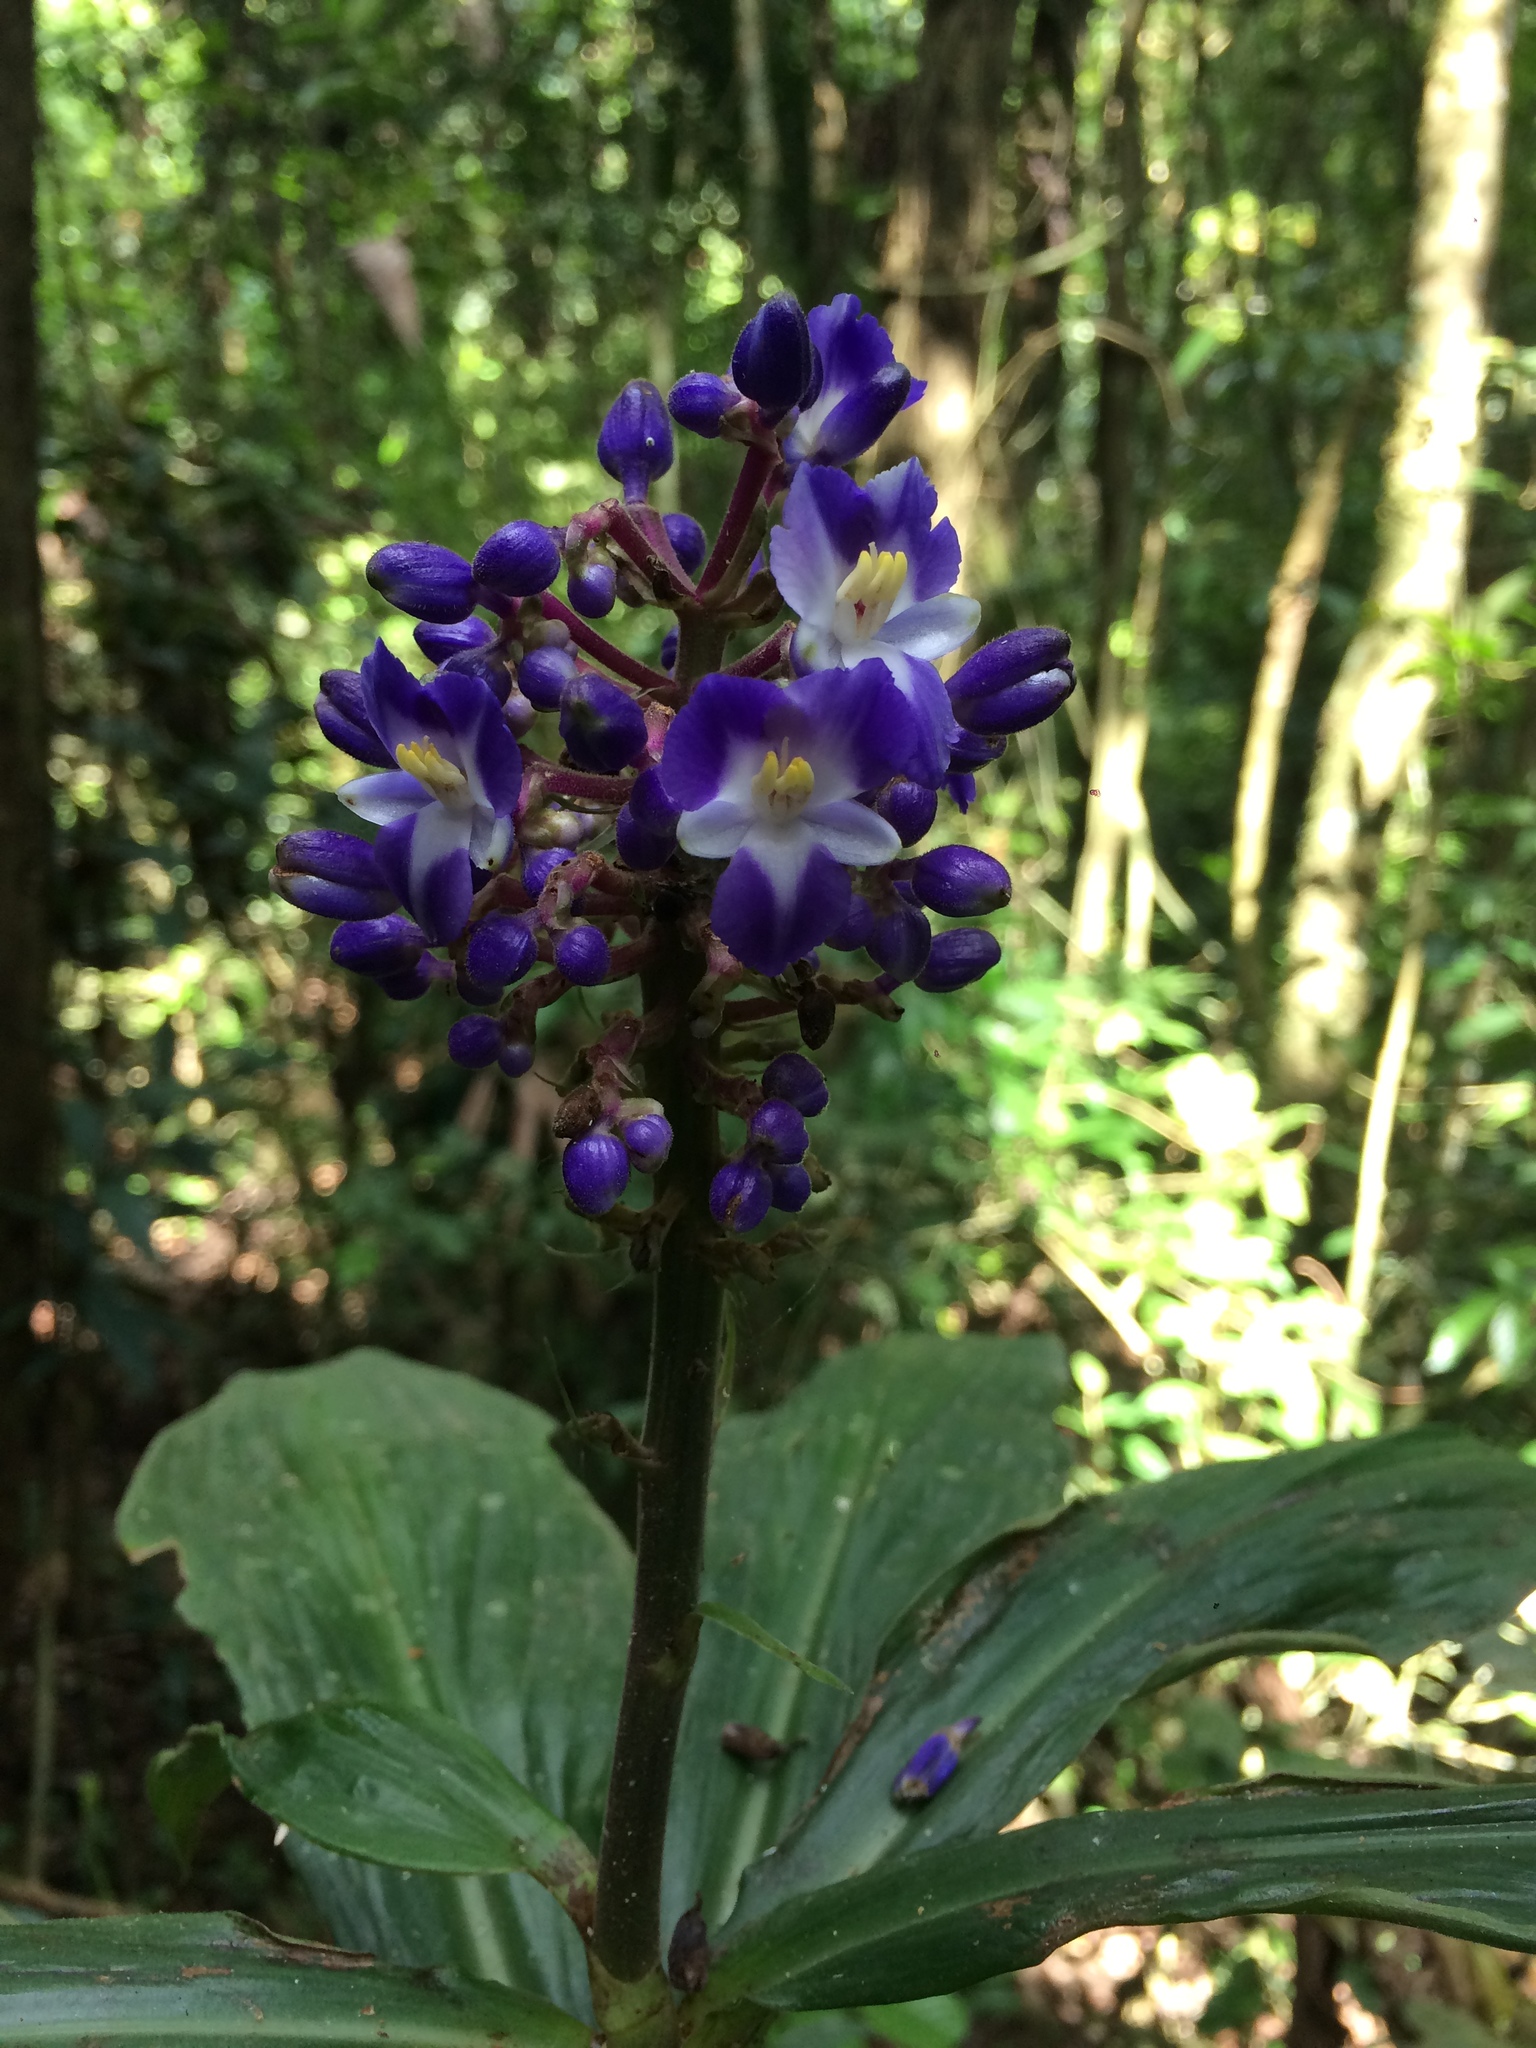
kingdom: Plantae
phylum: Tracheophyta
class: Liliopsida
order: Commelinales
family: Commelinaceae
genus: Dichorisandra
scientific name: Dichorisandra thyrsiflora
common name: Blue-ginger
